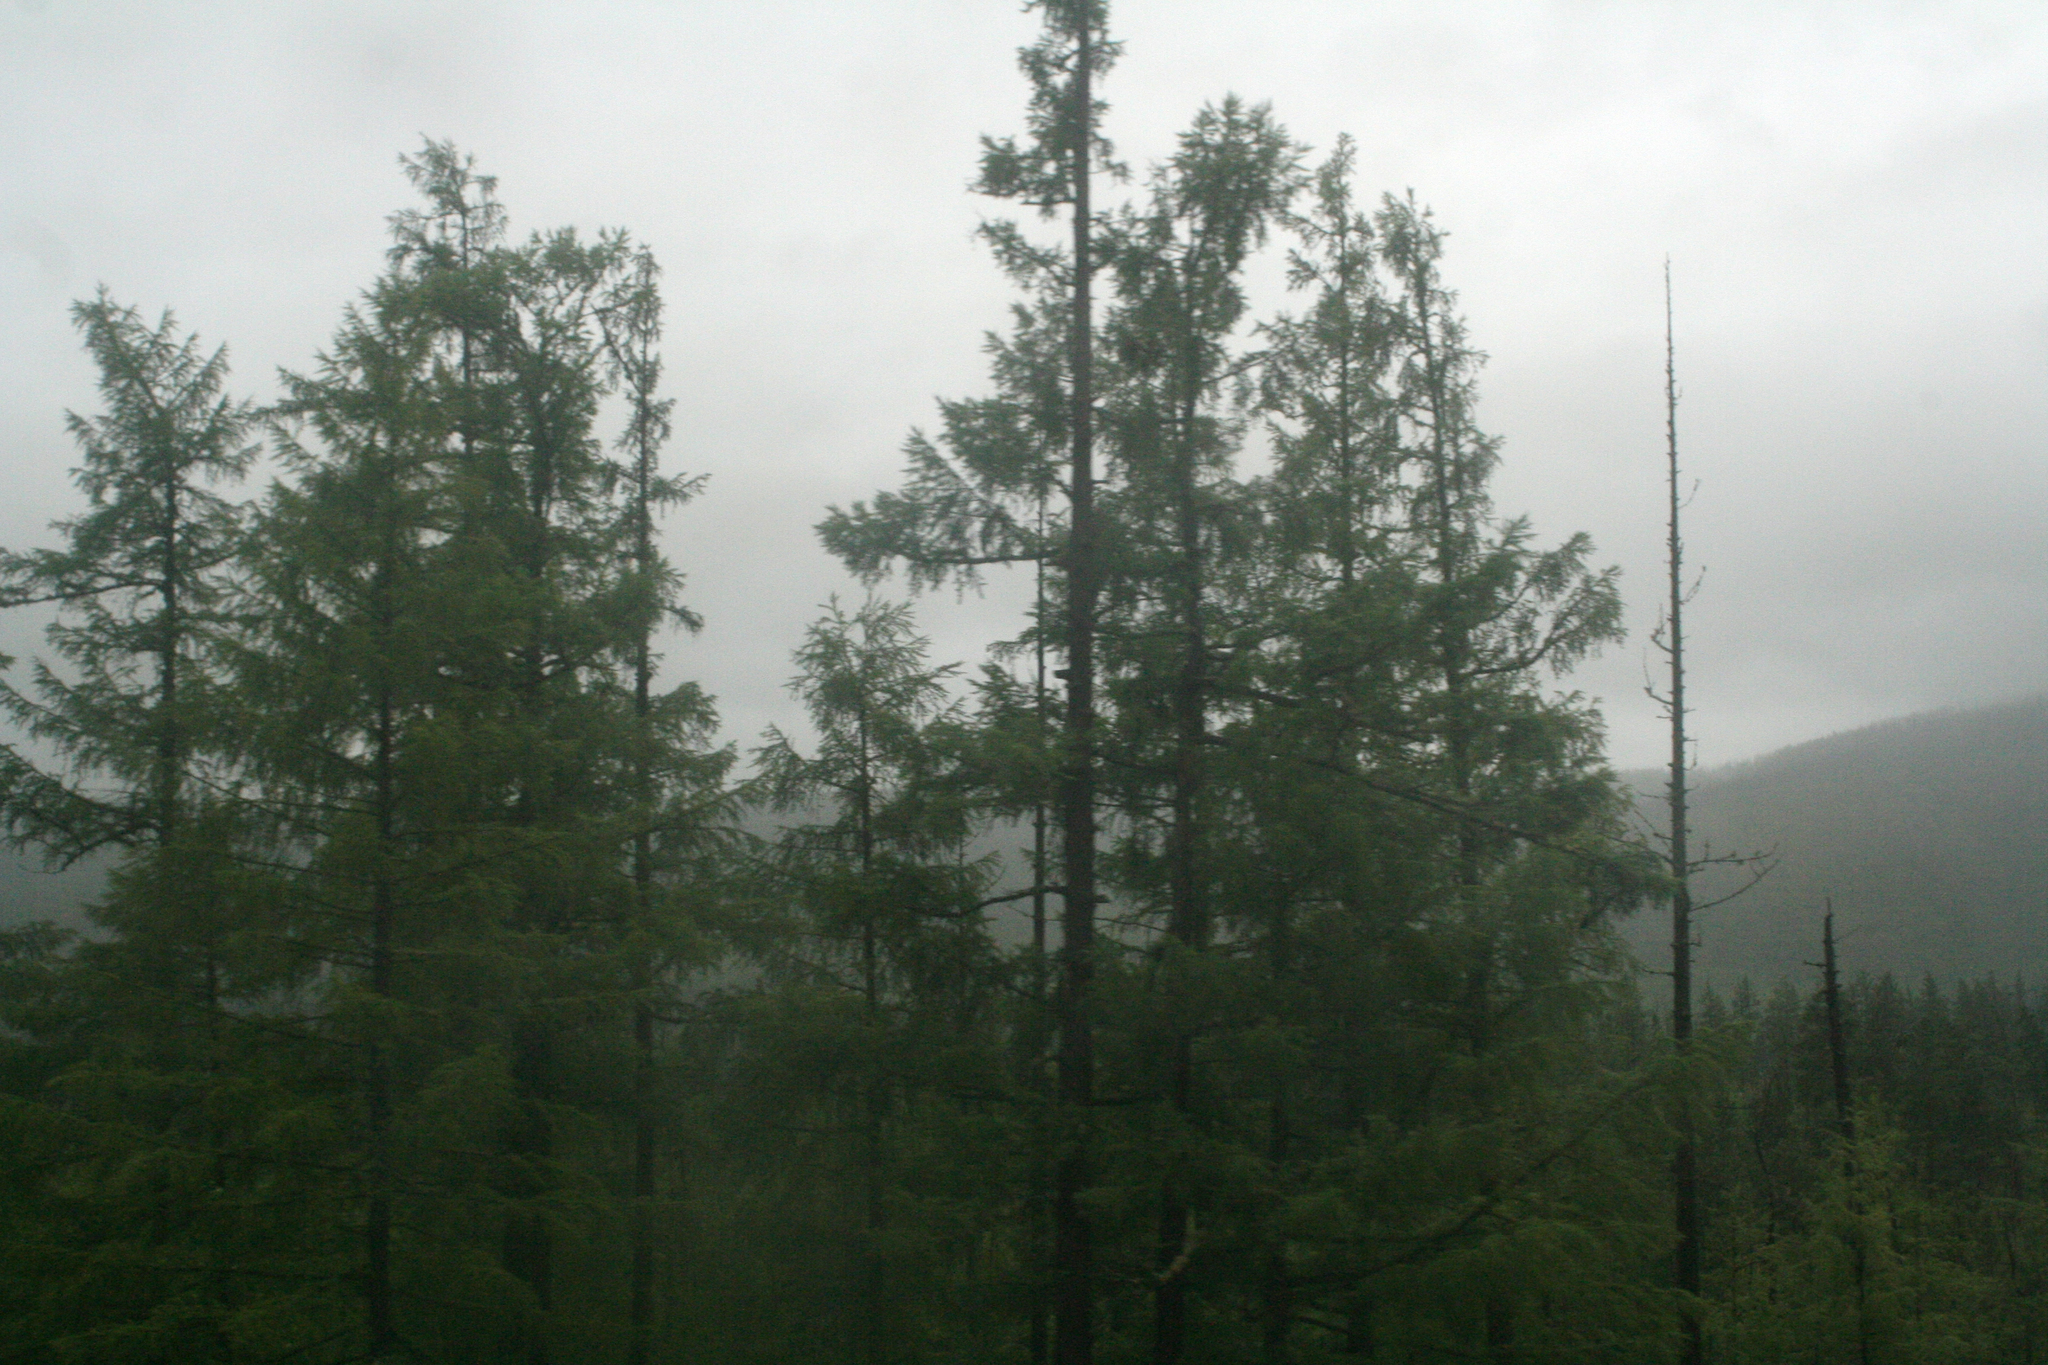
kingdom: Plantae
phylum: Tracheophyta
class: Pinopsida
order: Pinales
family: Pinaceae
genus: Larix
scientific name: Larix gmelinii
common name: Dahurian larch
